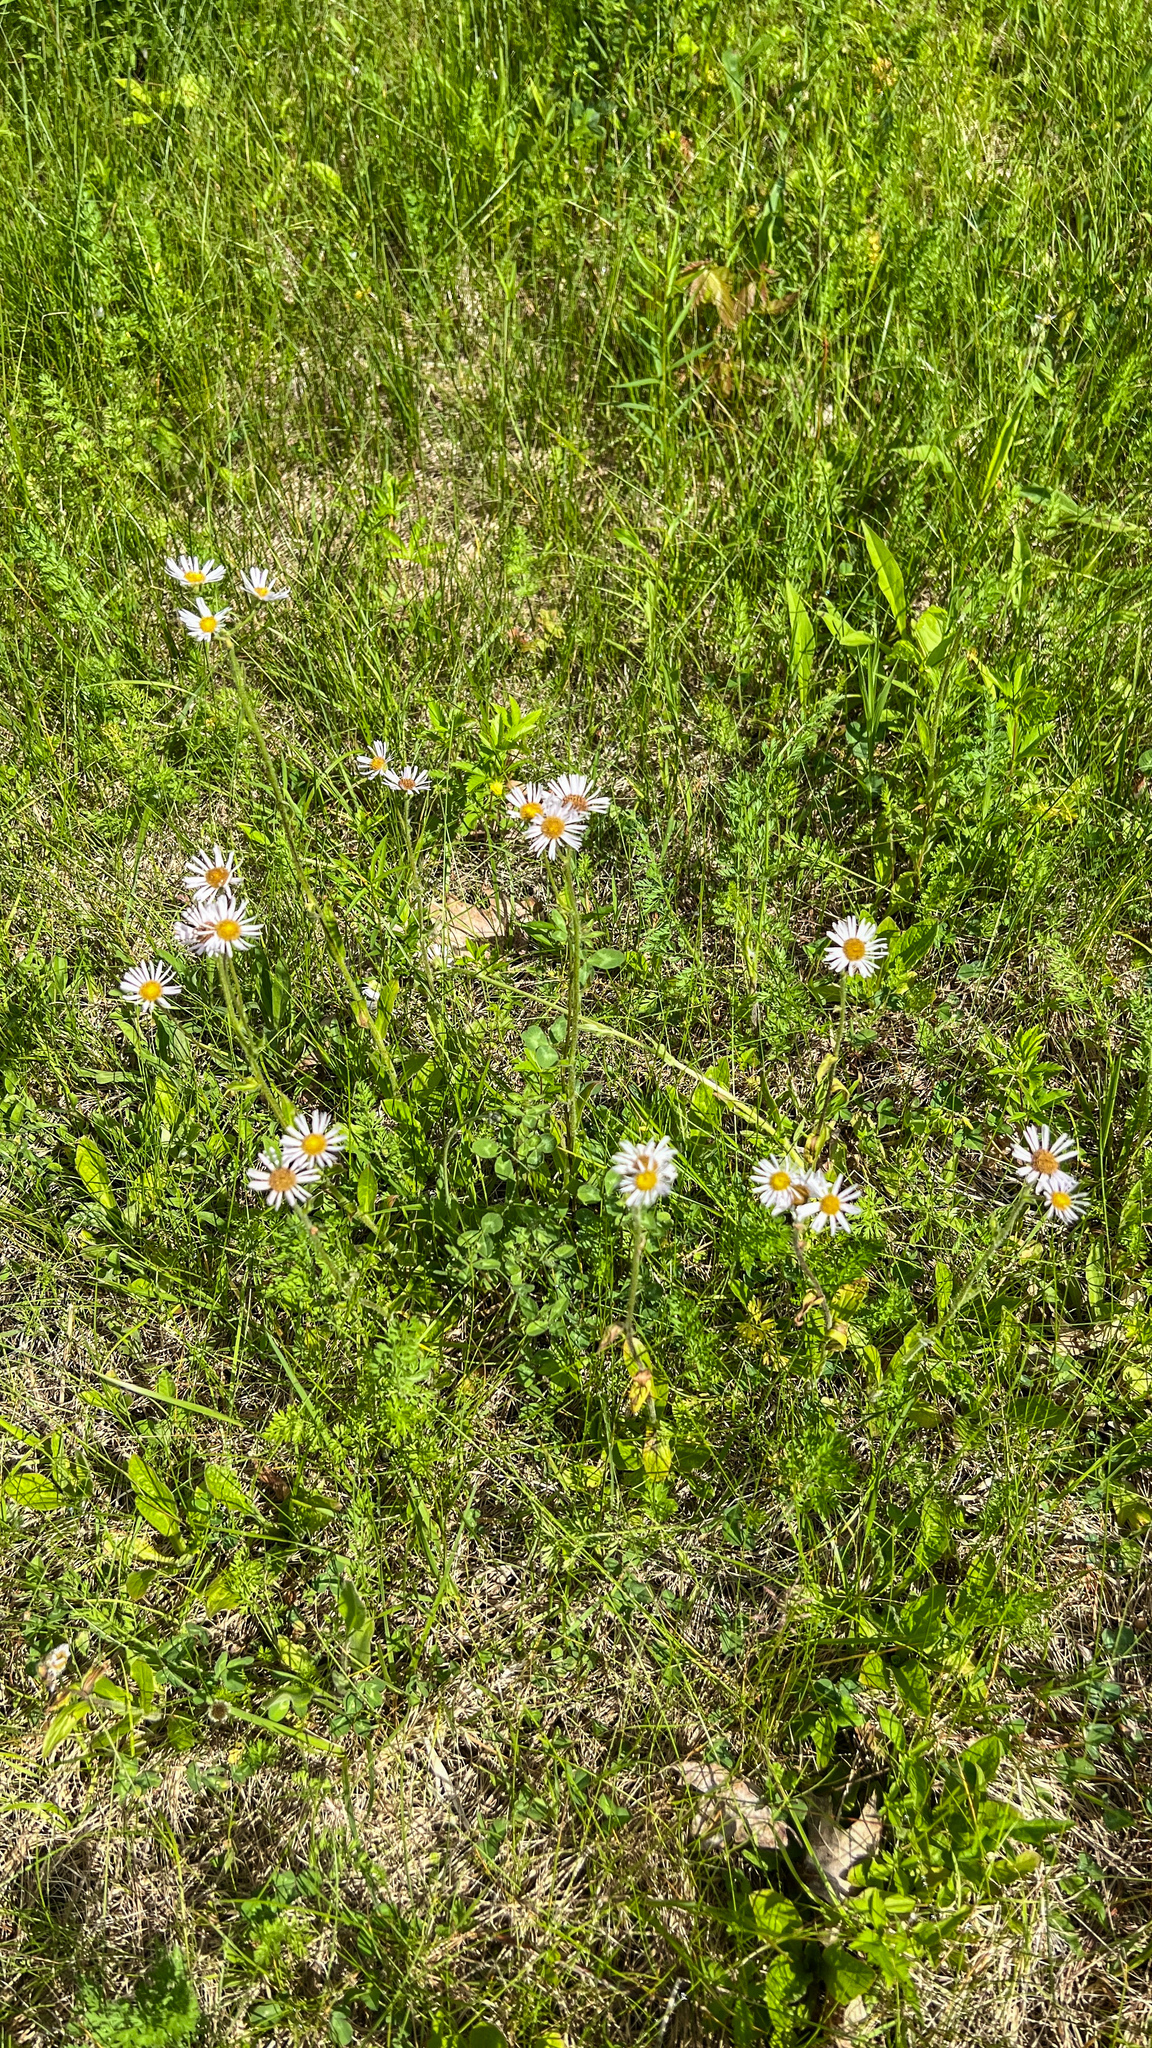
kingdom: Plantae
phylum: Tracheophyta
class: Magnoliopsida
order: Asterales
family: Asteraceae
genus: Erigeron
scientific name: Erigeron pulchellus
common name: Hairy fleabane
